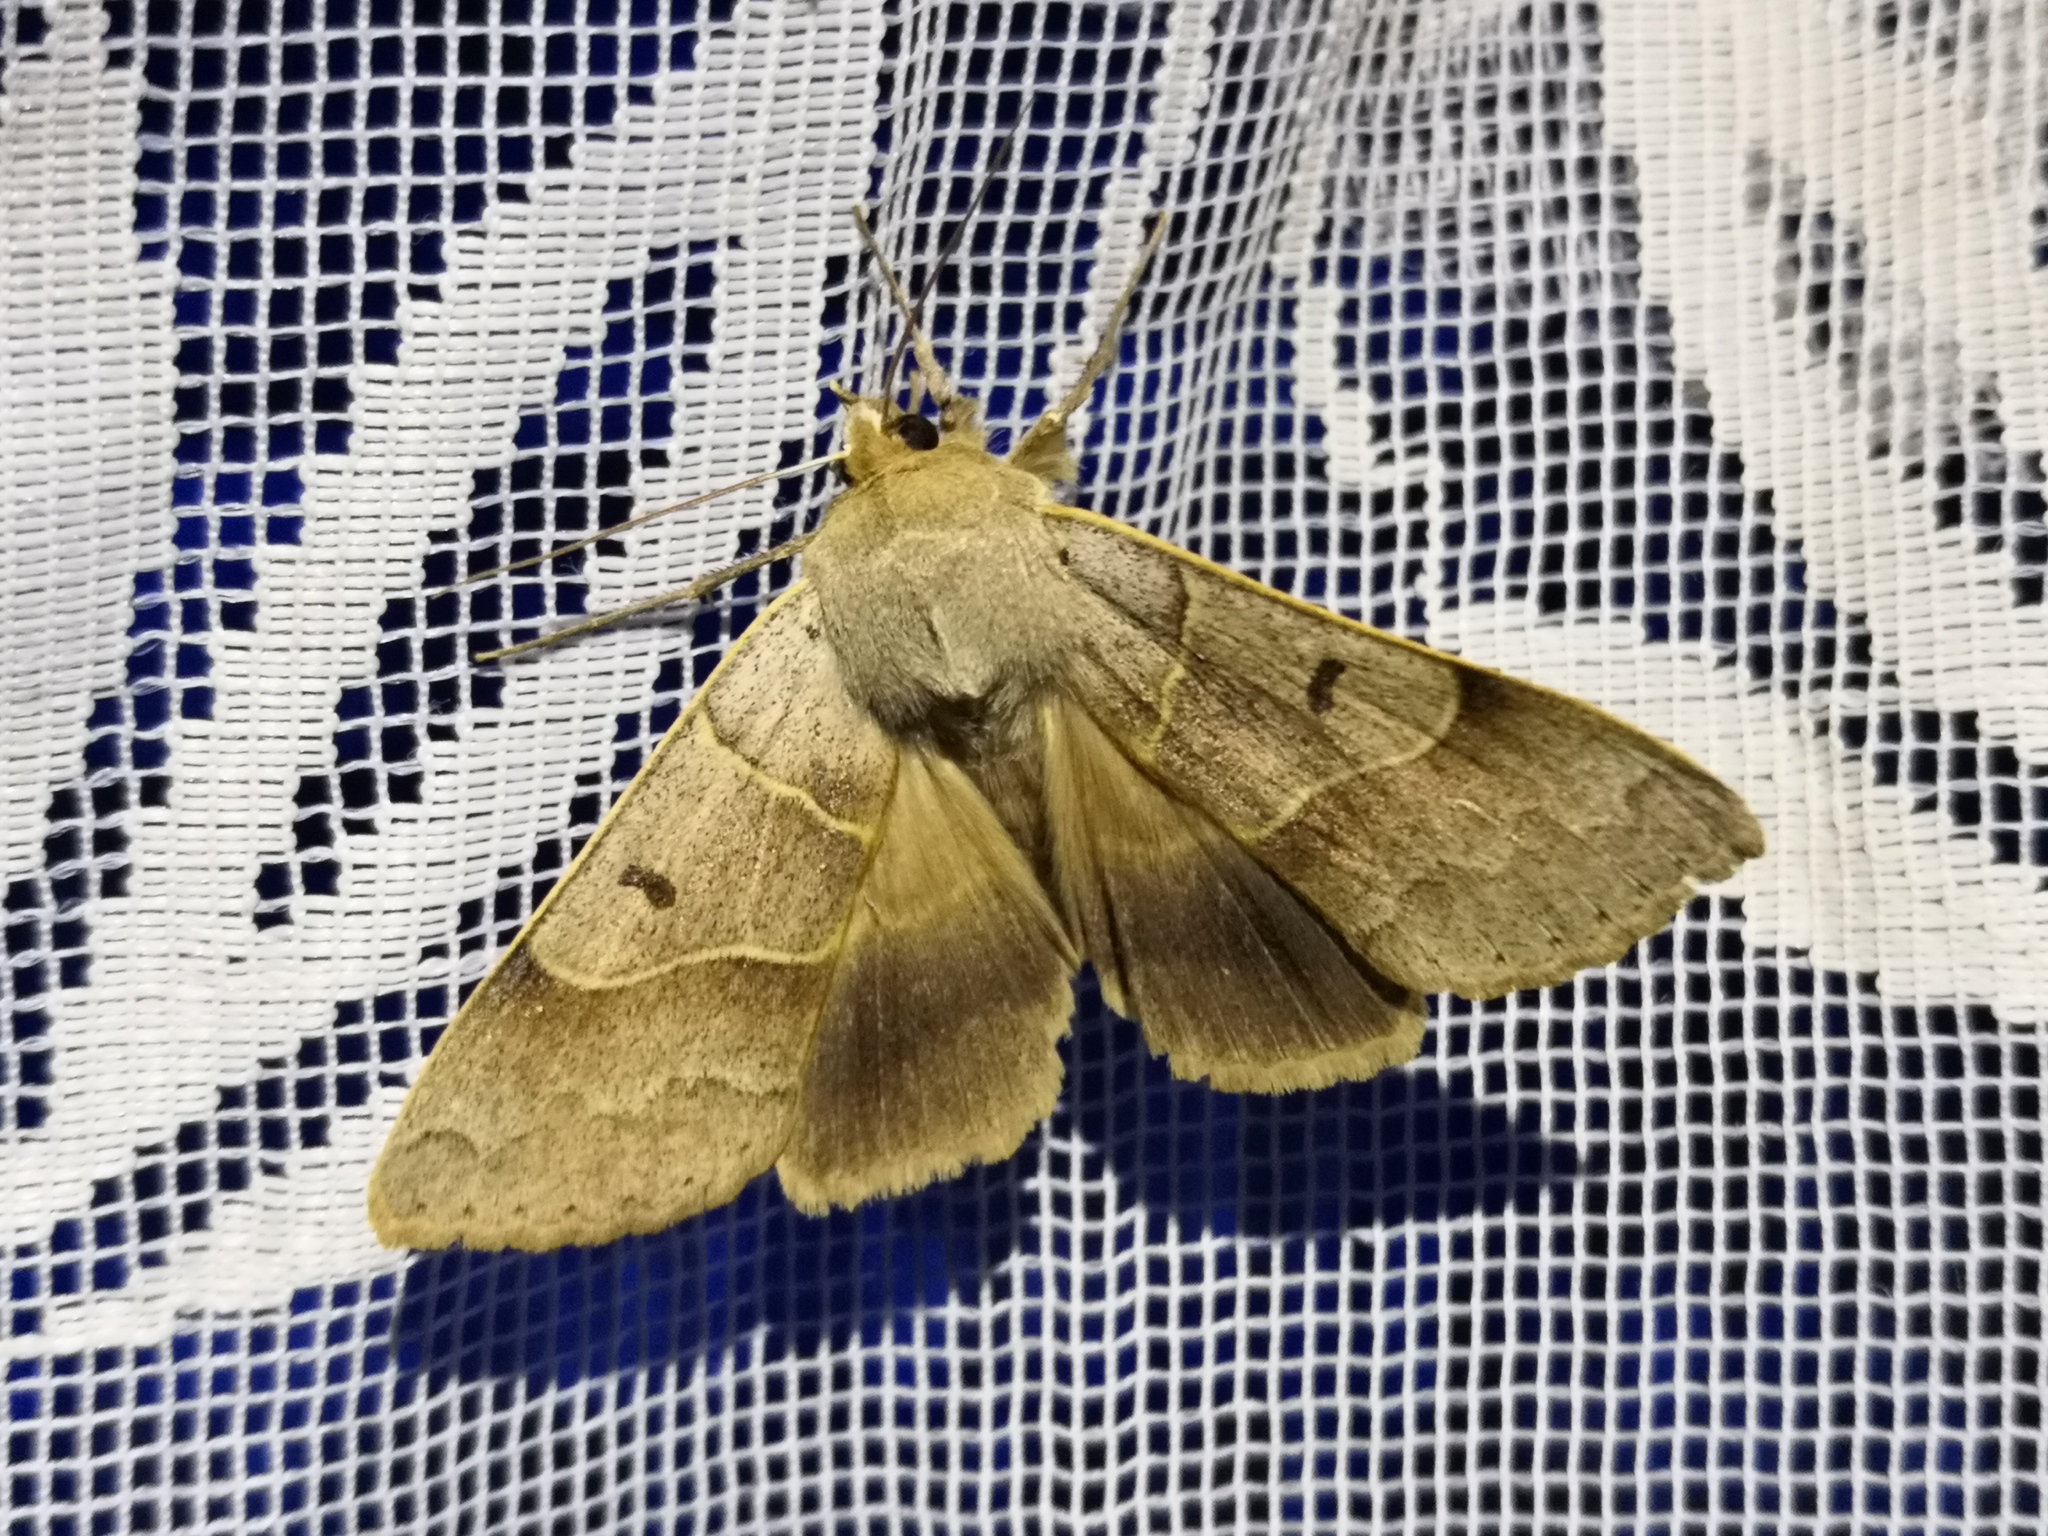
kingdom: Animalia
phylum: Arthropoda
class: Insecta
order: Lepidoptera
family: Erebidae
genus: Minucia
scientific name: Minucia lunaris
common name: Lunar double-stripe
